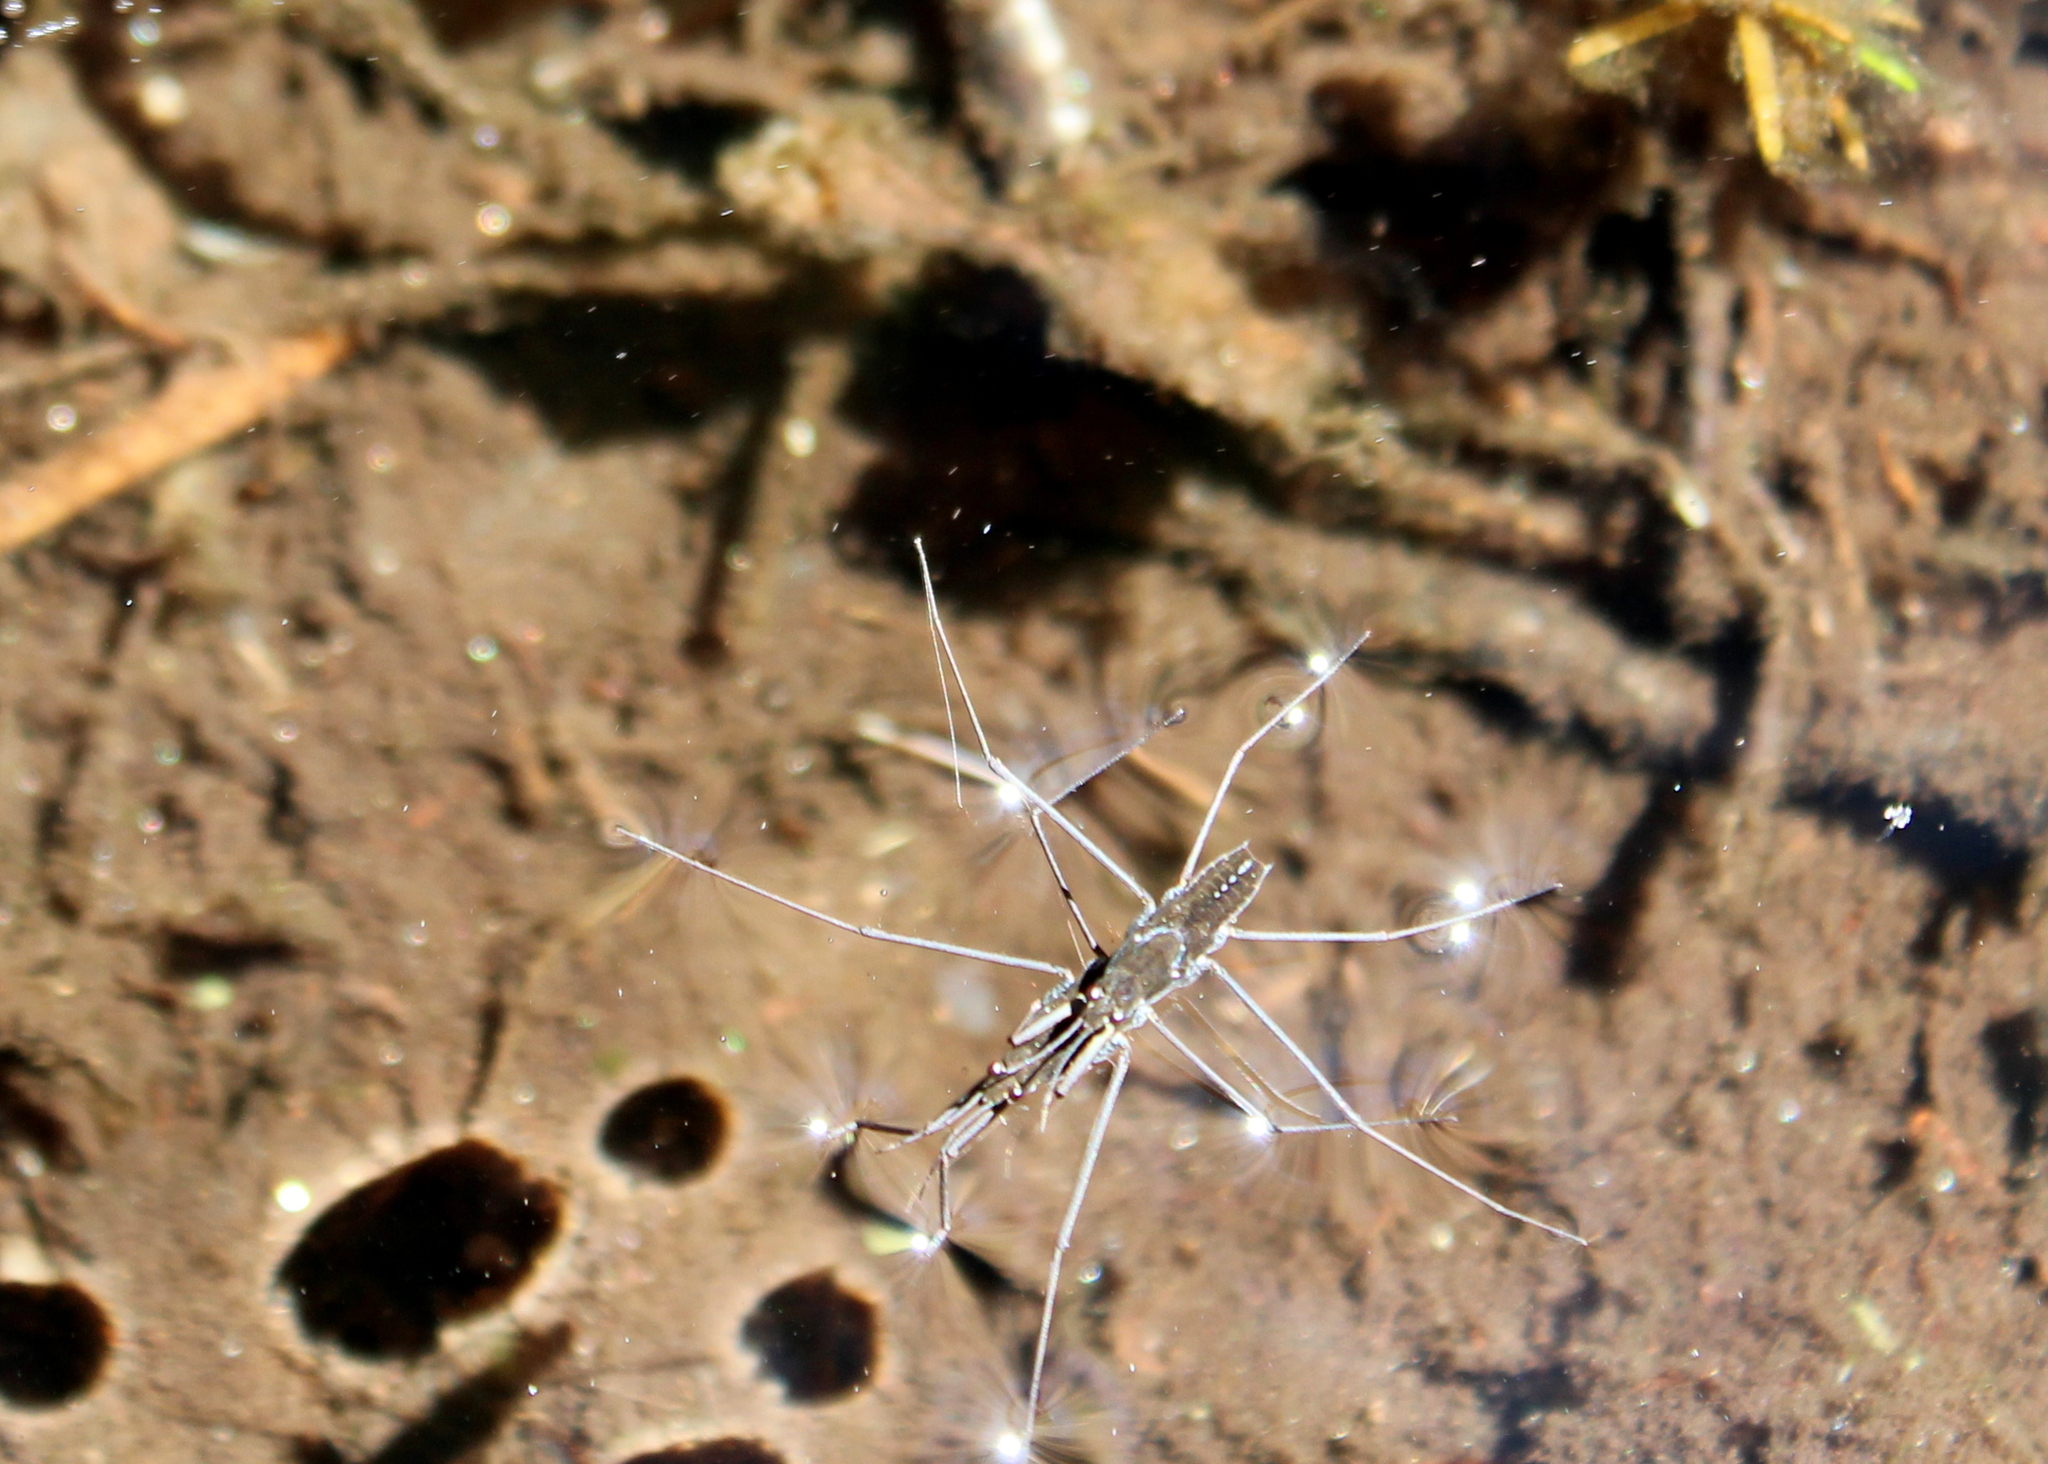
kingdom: Animalia
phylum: Arthropoda
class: Insecta
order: Hemiptera
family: Gerridae
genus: Aquarius
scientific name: Aquarius remigis
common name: Common water strider
